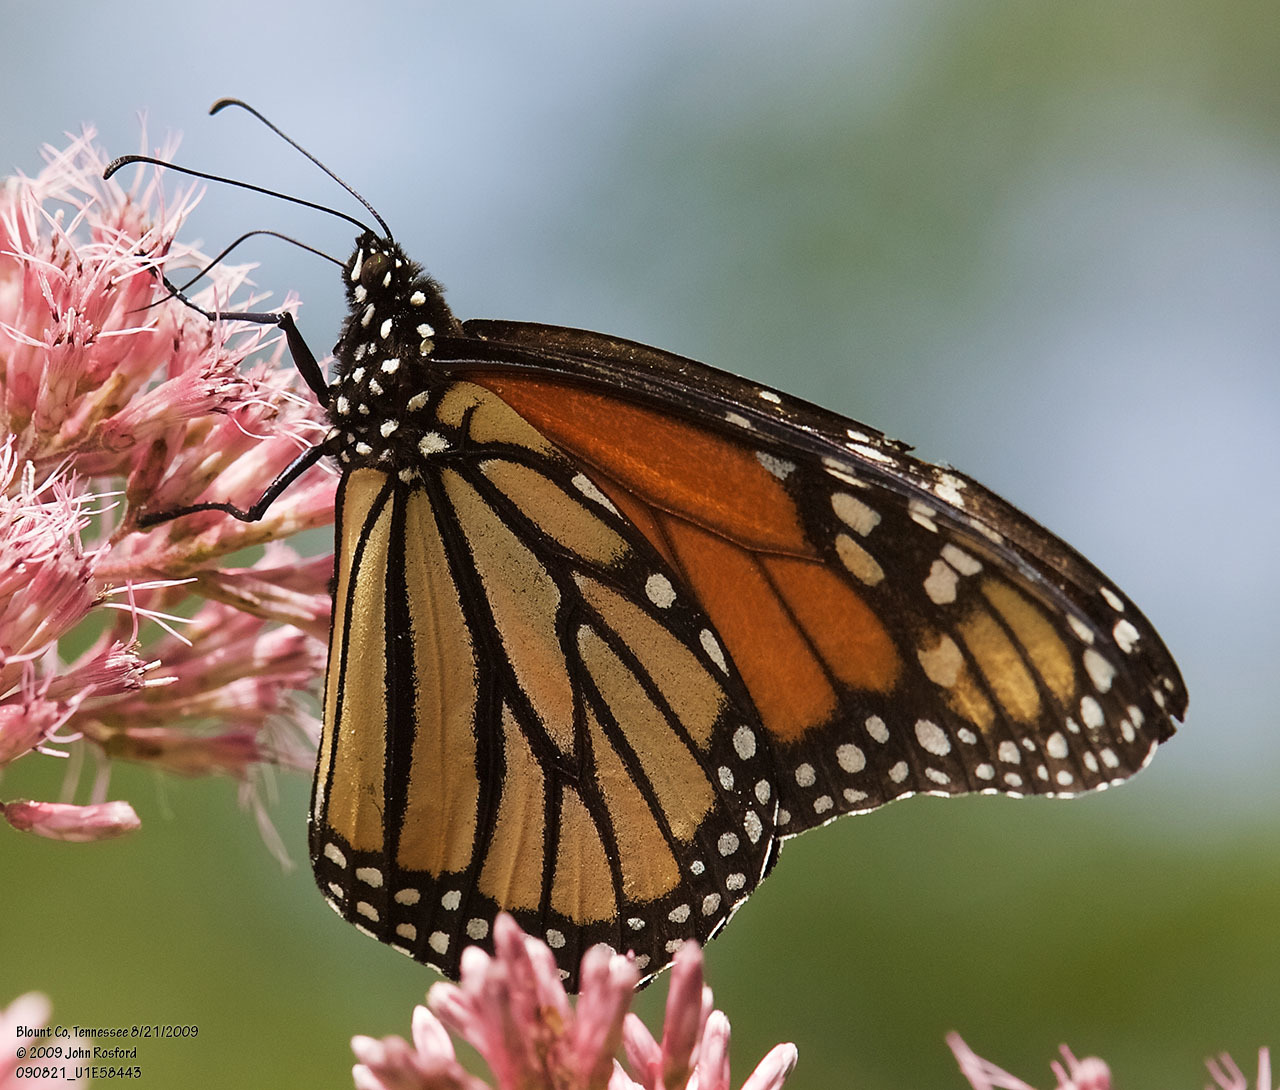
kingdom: Animalia
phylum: Arthropoda
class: Insecta
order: Lepidoptera
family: Nymphalidae
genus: Danaus
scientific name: Danaus plexippus
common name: Monarch
